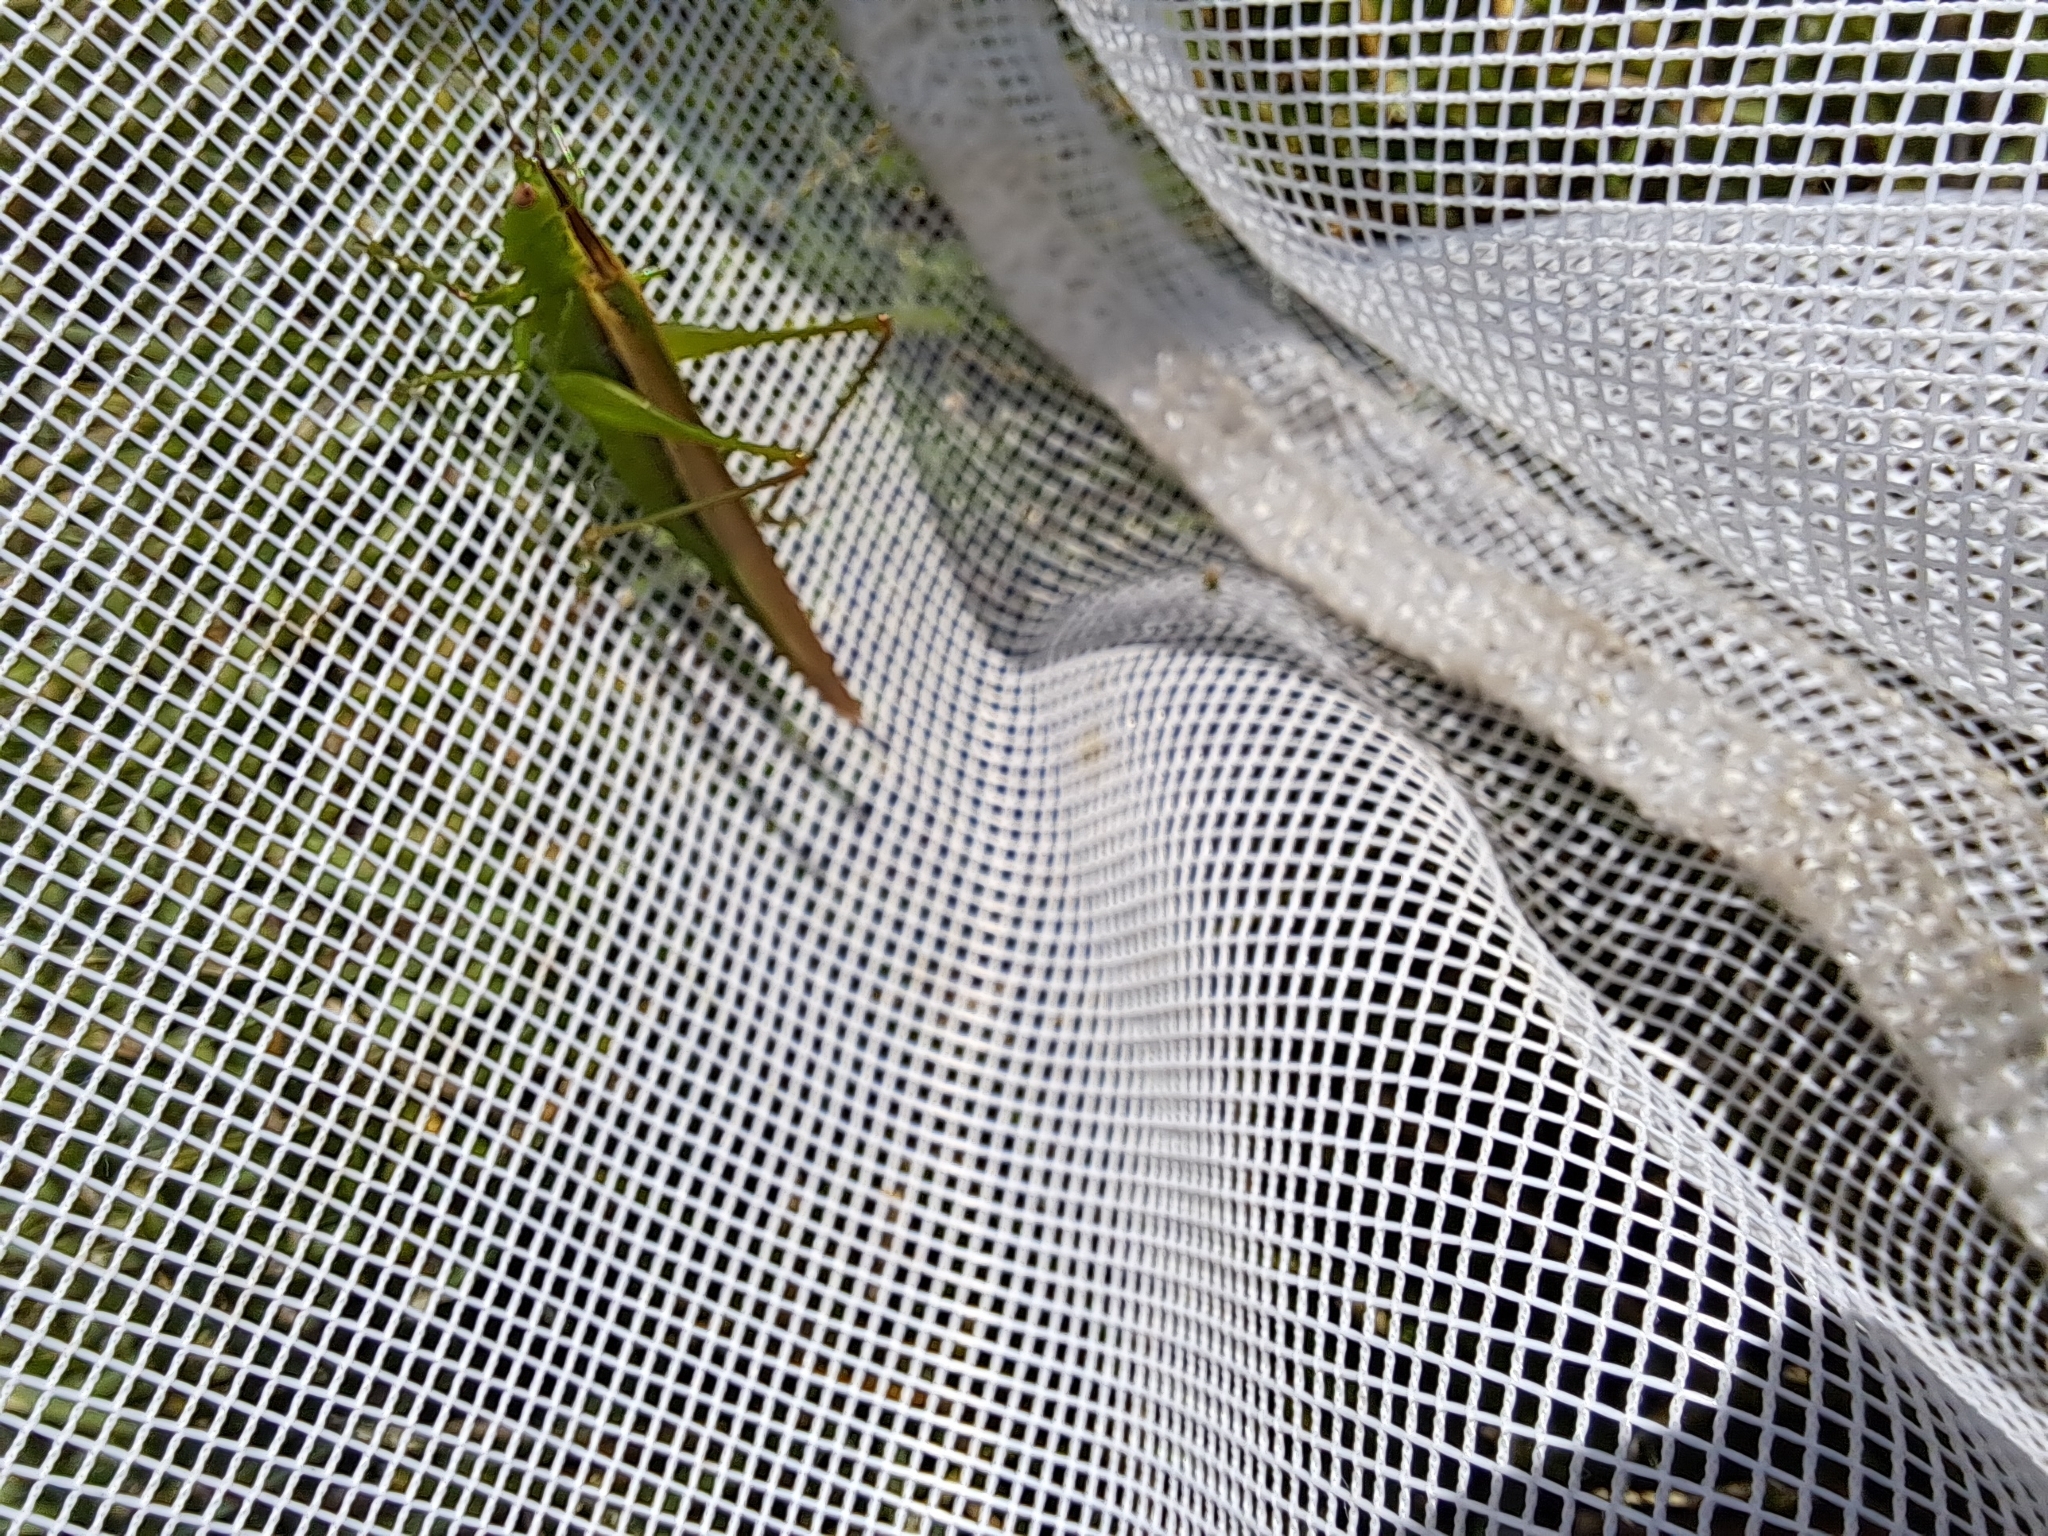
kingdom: Animalia
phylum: Arthropoda
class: Insecta
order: Orthoptera
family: Tettigoniidae
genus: Conocephalus
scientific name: Conocephalus fasciatus
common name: Slender meadow katydid
